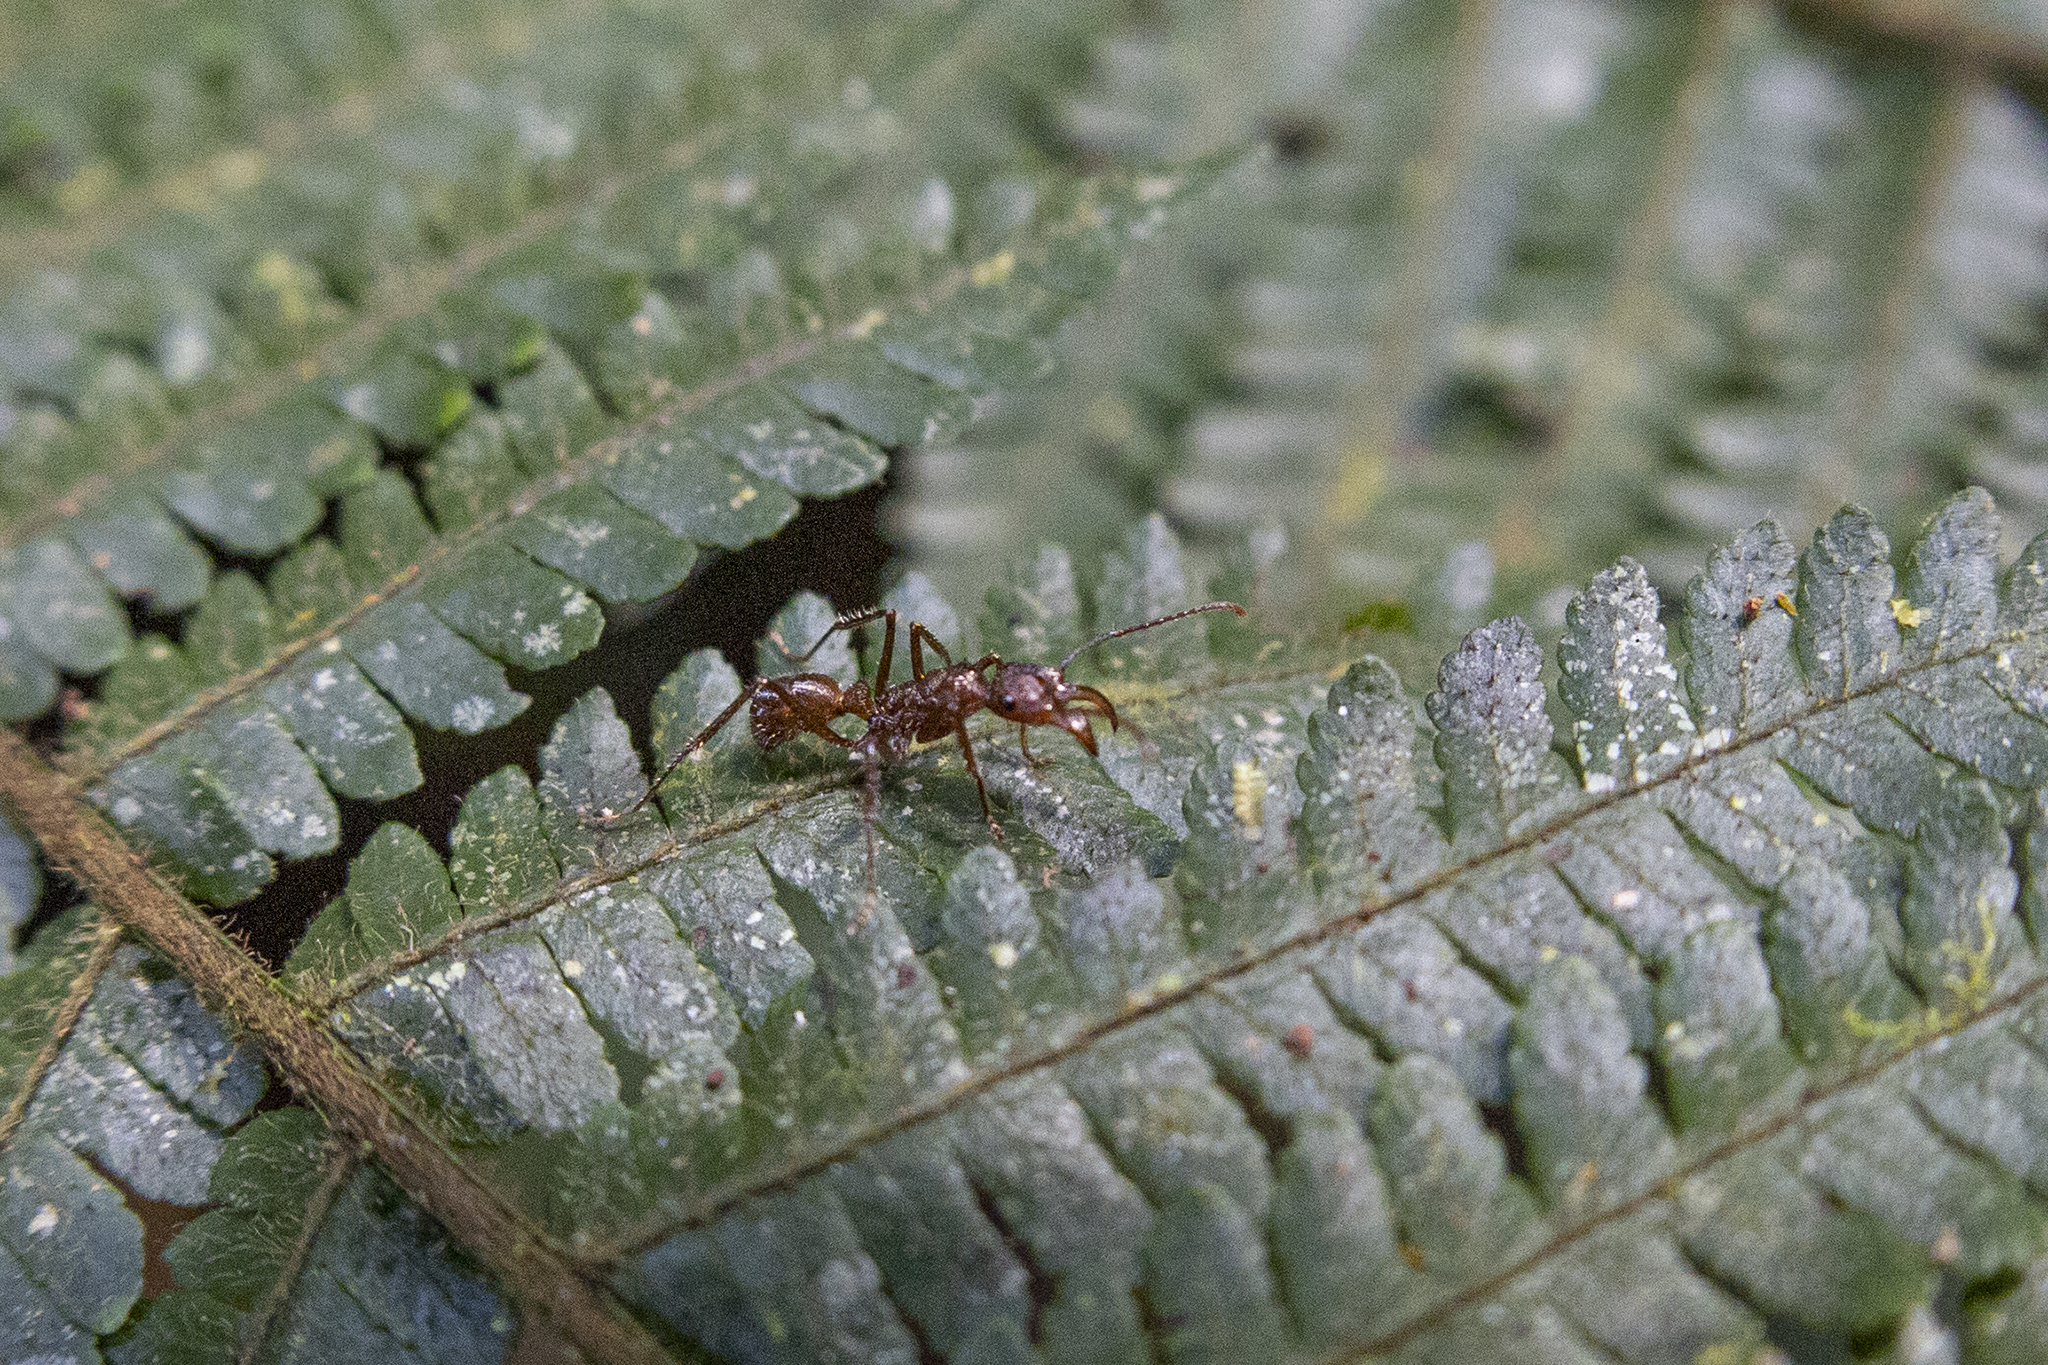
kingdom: Animalia
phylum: Arthropoda
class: Insecta
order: Hymenoptera
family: Formicidae
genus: Ectatomma
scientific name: Ectatomma tuberculatum
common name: Ant
